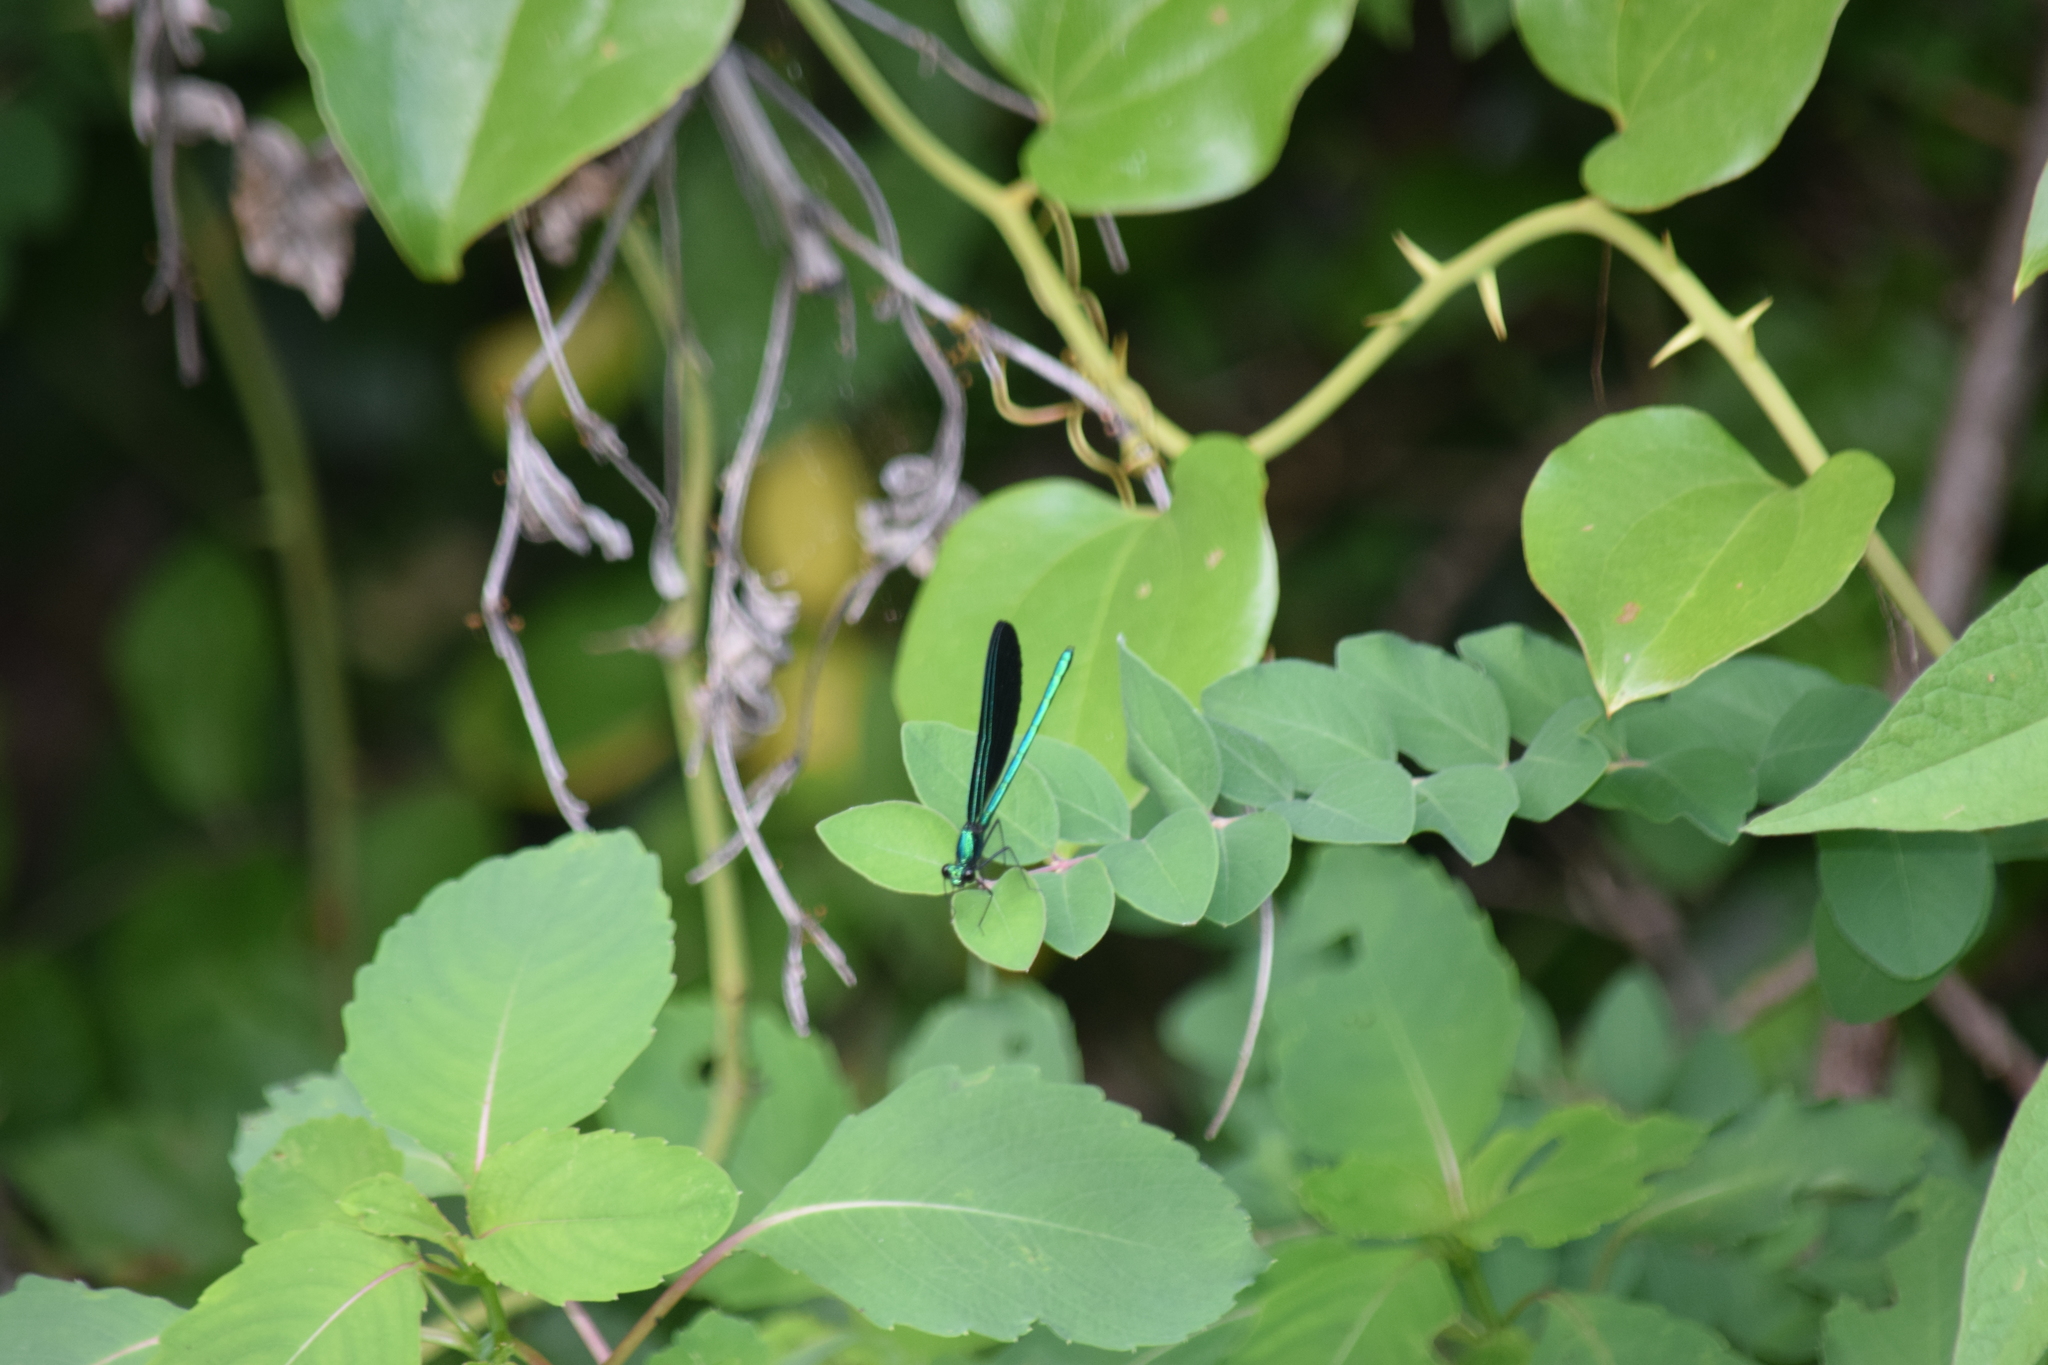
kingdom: Animalia
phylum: Arthropoda
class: Insecta
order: Odonata
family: Calopterygidae
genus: Calopteryx
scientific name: Calopteryx maculata
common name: Ebony jewelwing
